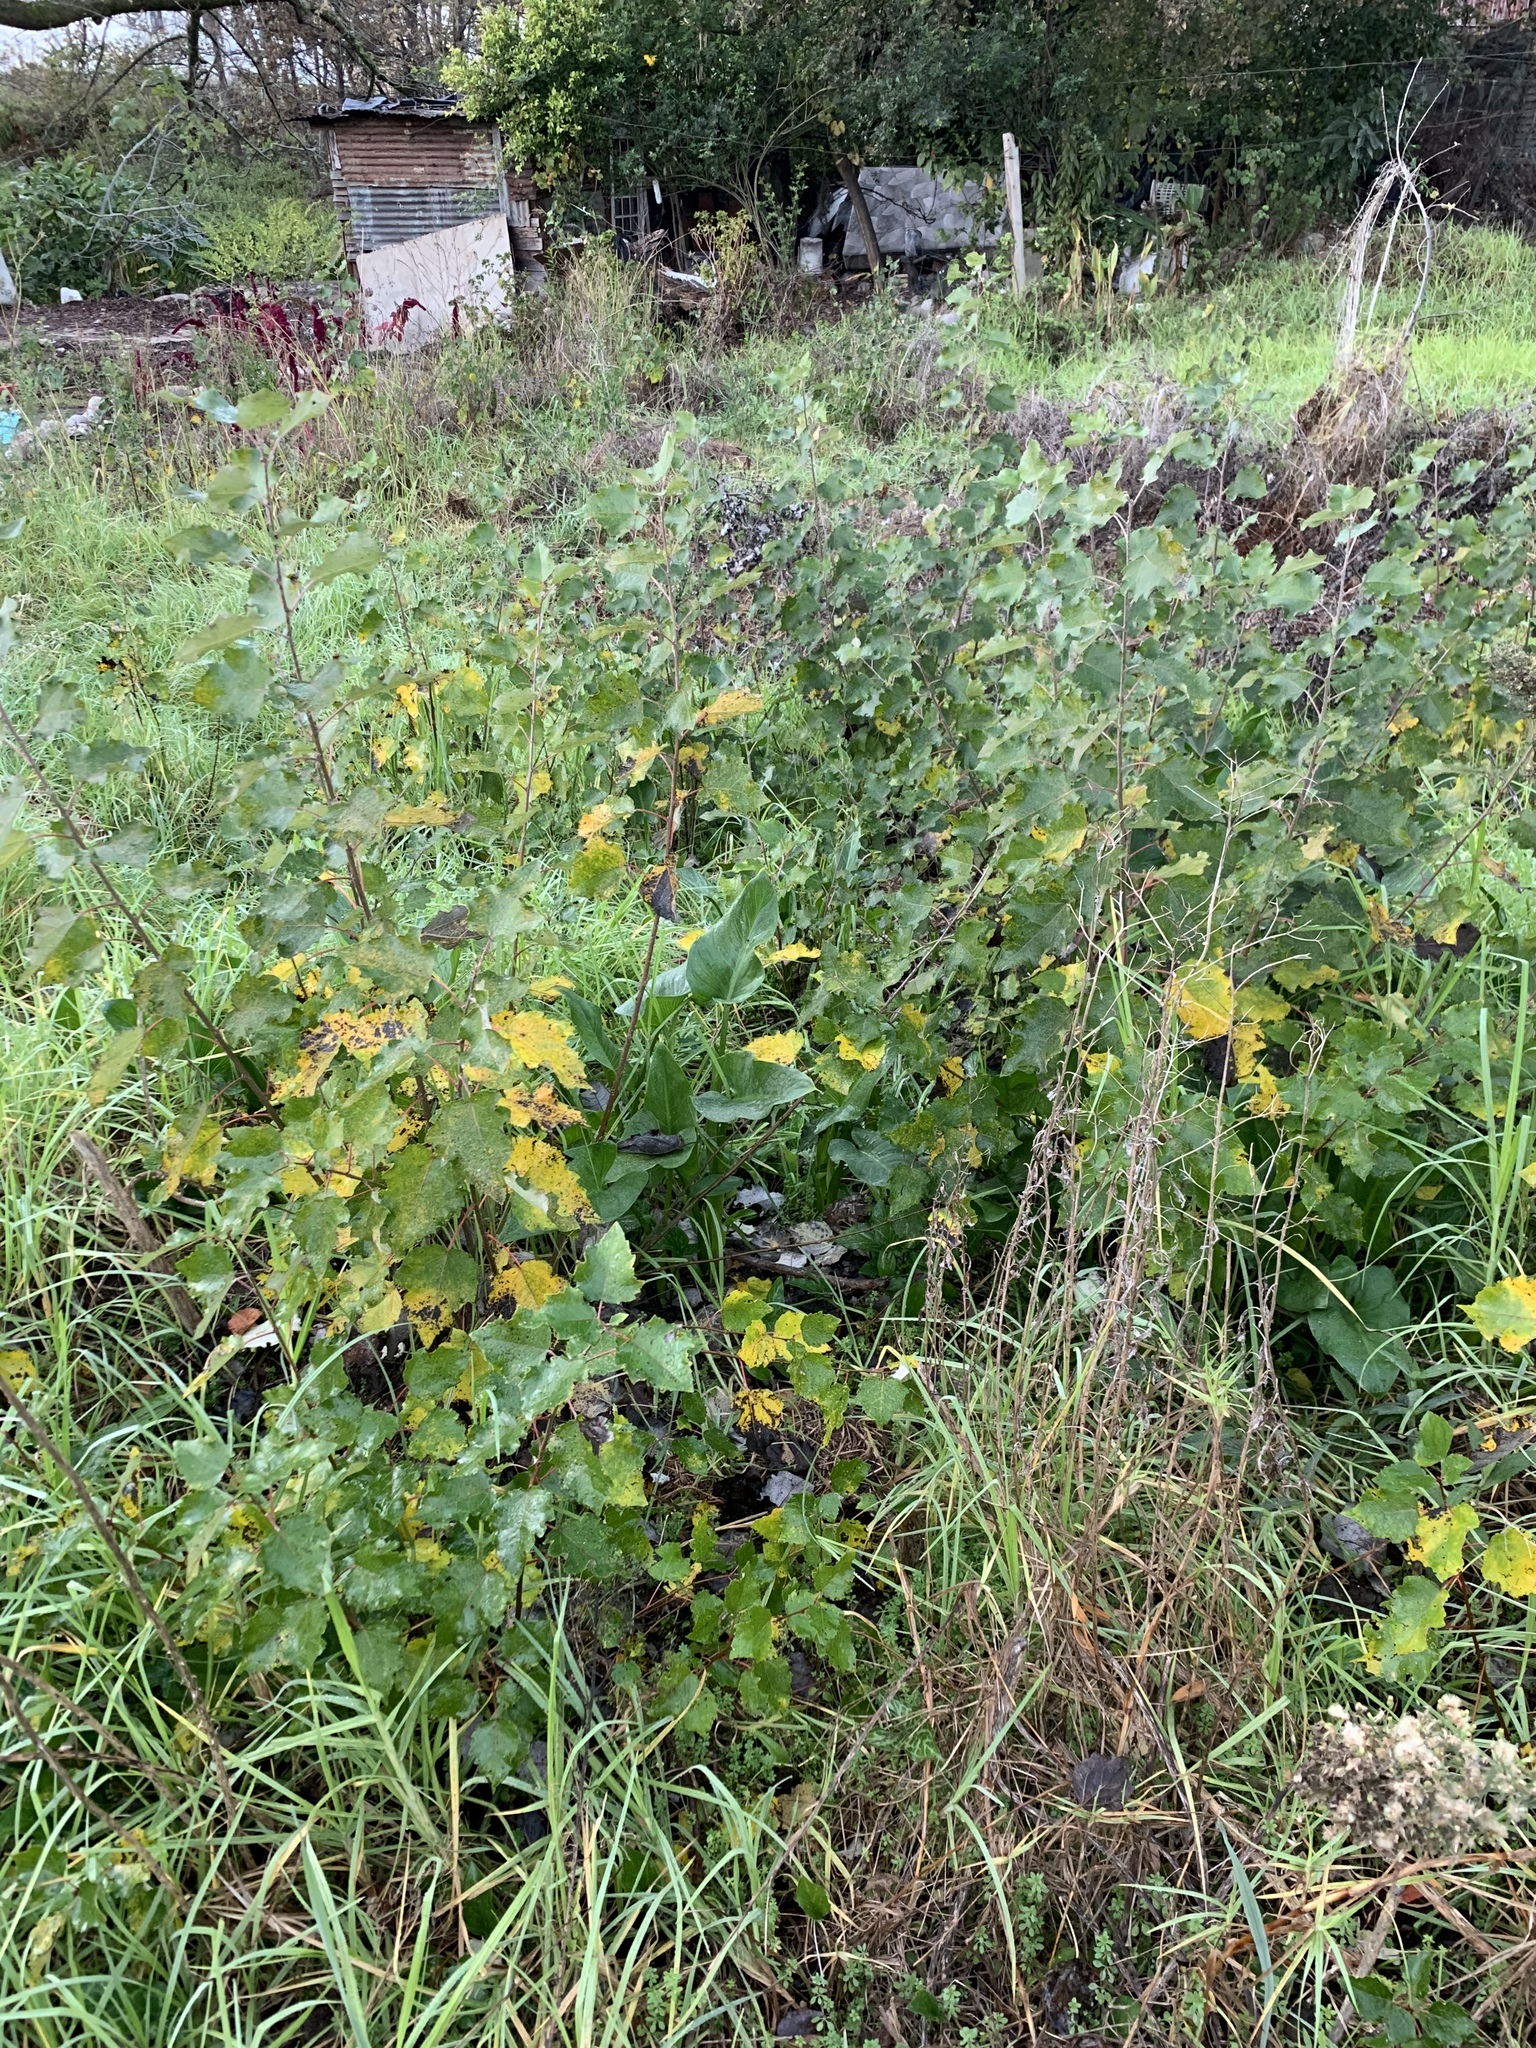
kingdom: Plantae
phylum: Tracheophyta
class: Magnoliopsida
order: Malpighiales
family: Salicaceae
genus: Populus
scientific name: Populus canescens
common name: Gray poplar
